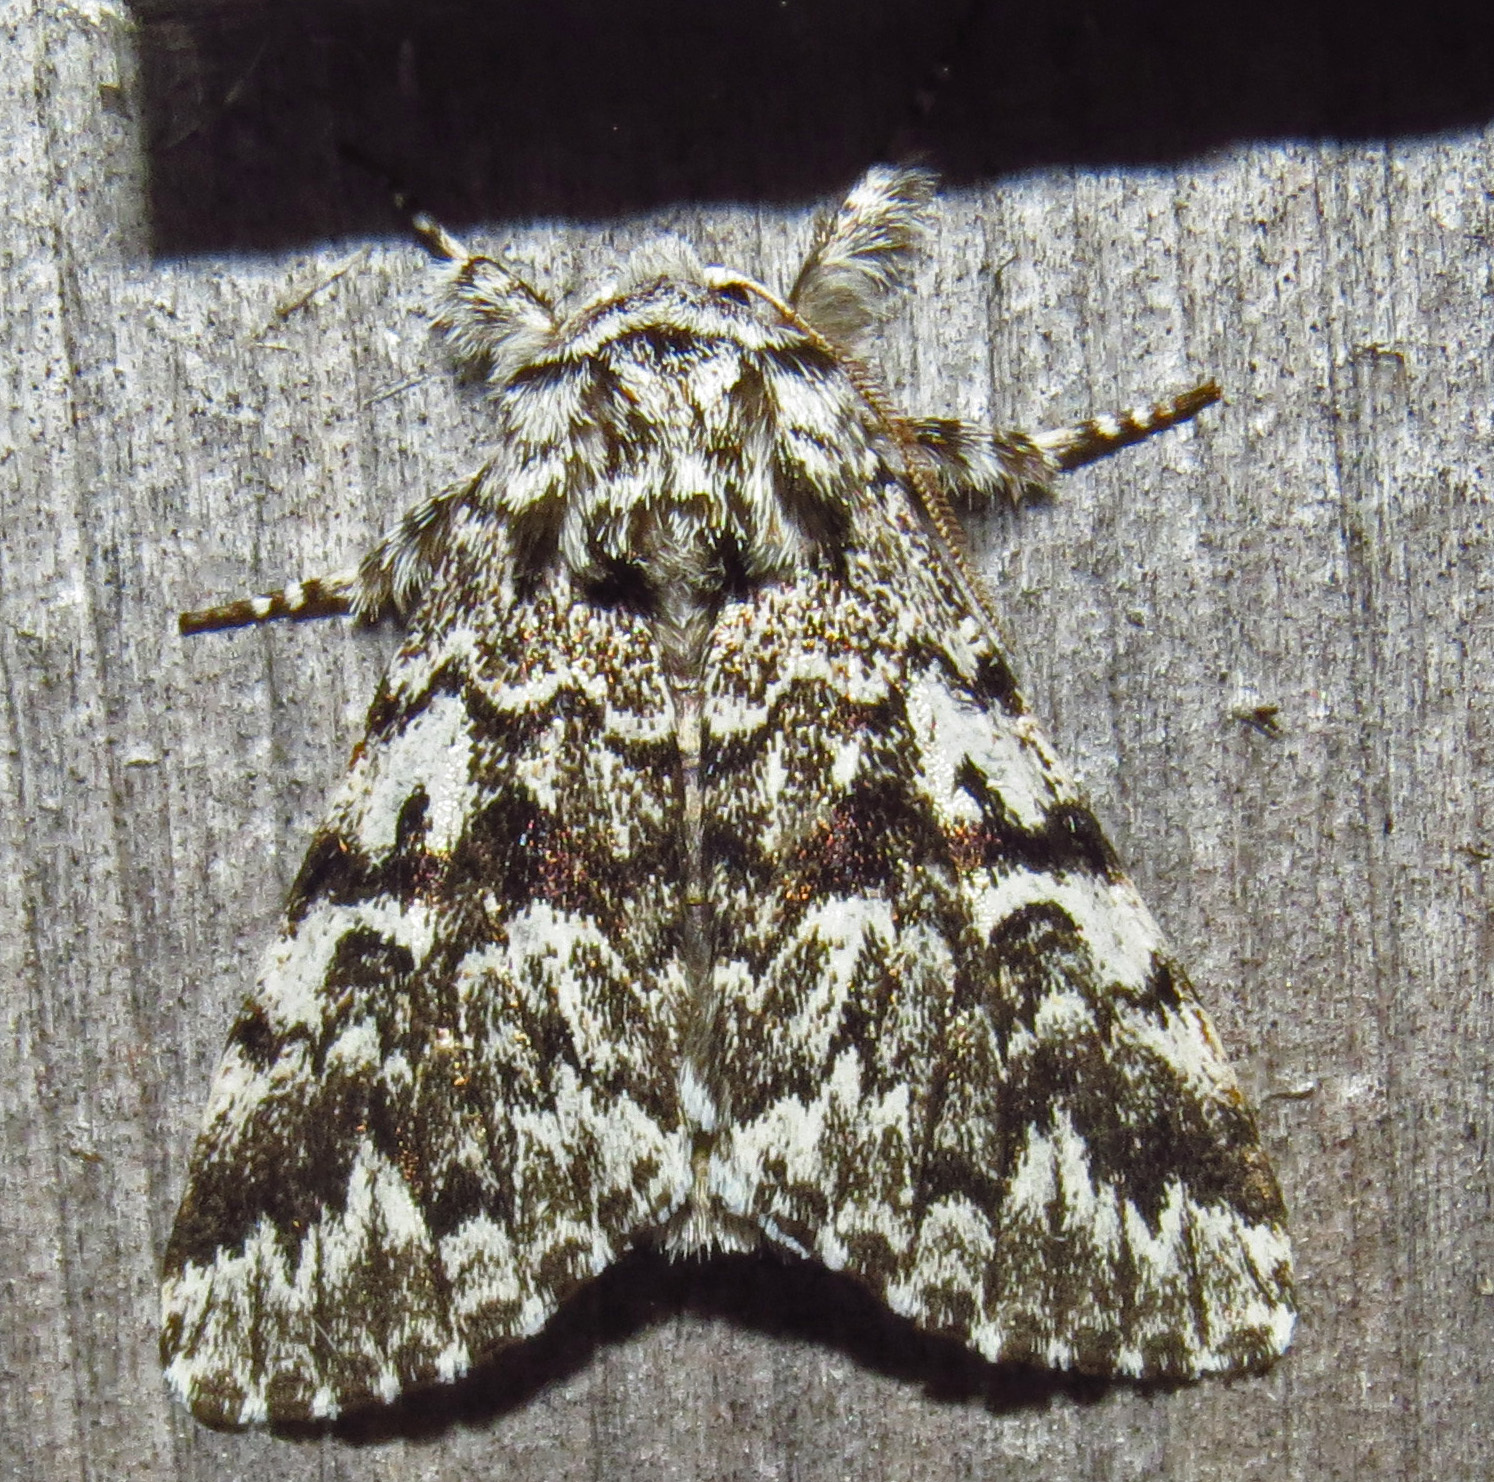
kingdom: Animalia
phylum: Arthropoda
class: Insecta
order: Lepidoptera
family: Noctuidae
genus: Panthea
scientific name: Panthea acronyctoides
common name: Black zigzag moth
